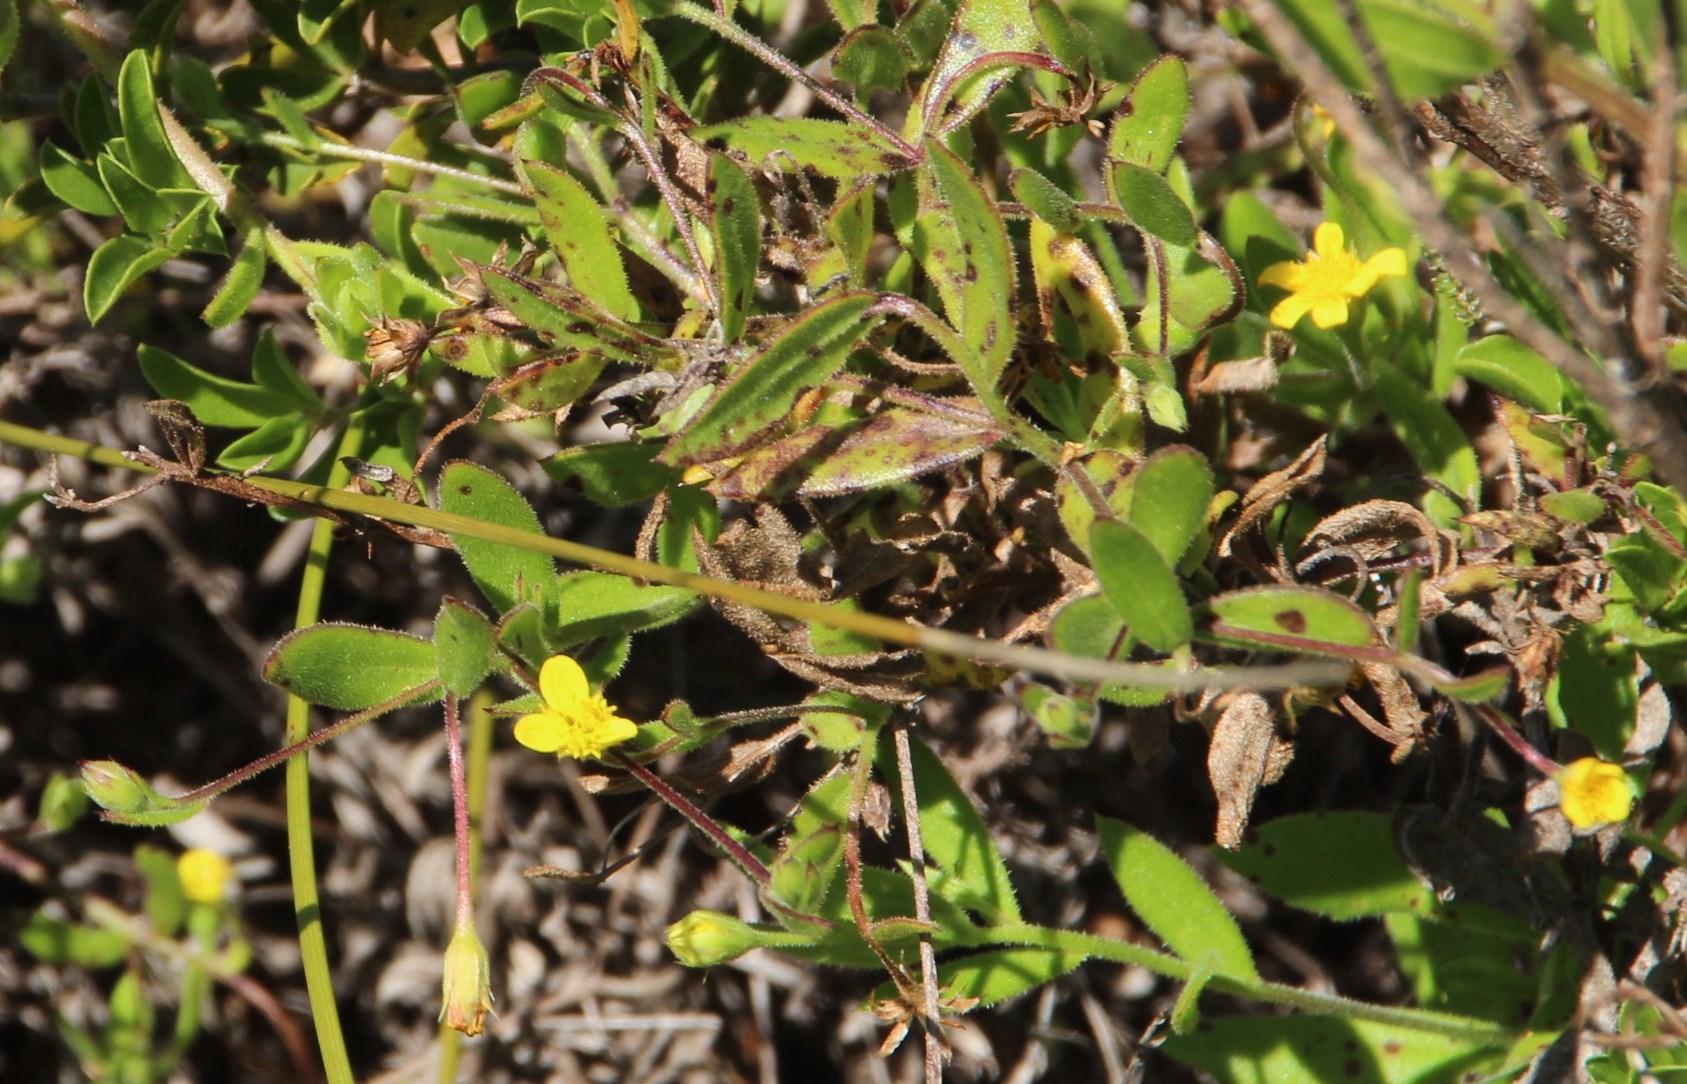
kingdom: Plantae
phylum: Tracheophyta
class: Magnoliopsida
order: Asterales
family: Asteraceae
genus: Osteospermum
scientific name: Osteospermum hispidum
